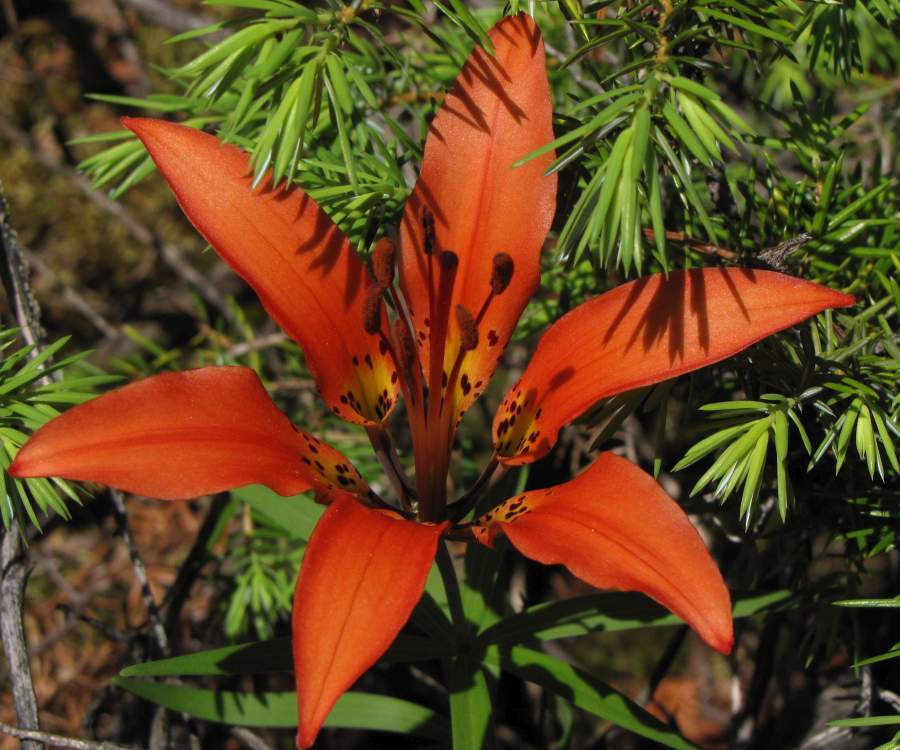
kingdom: Plantae
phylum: Tracheophyta
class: Liliopsida
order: Liliales
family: Liliaceae
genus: Lilium
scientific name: Lilium philadelphicum
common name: Red lily
